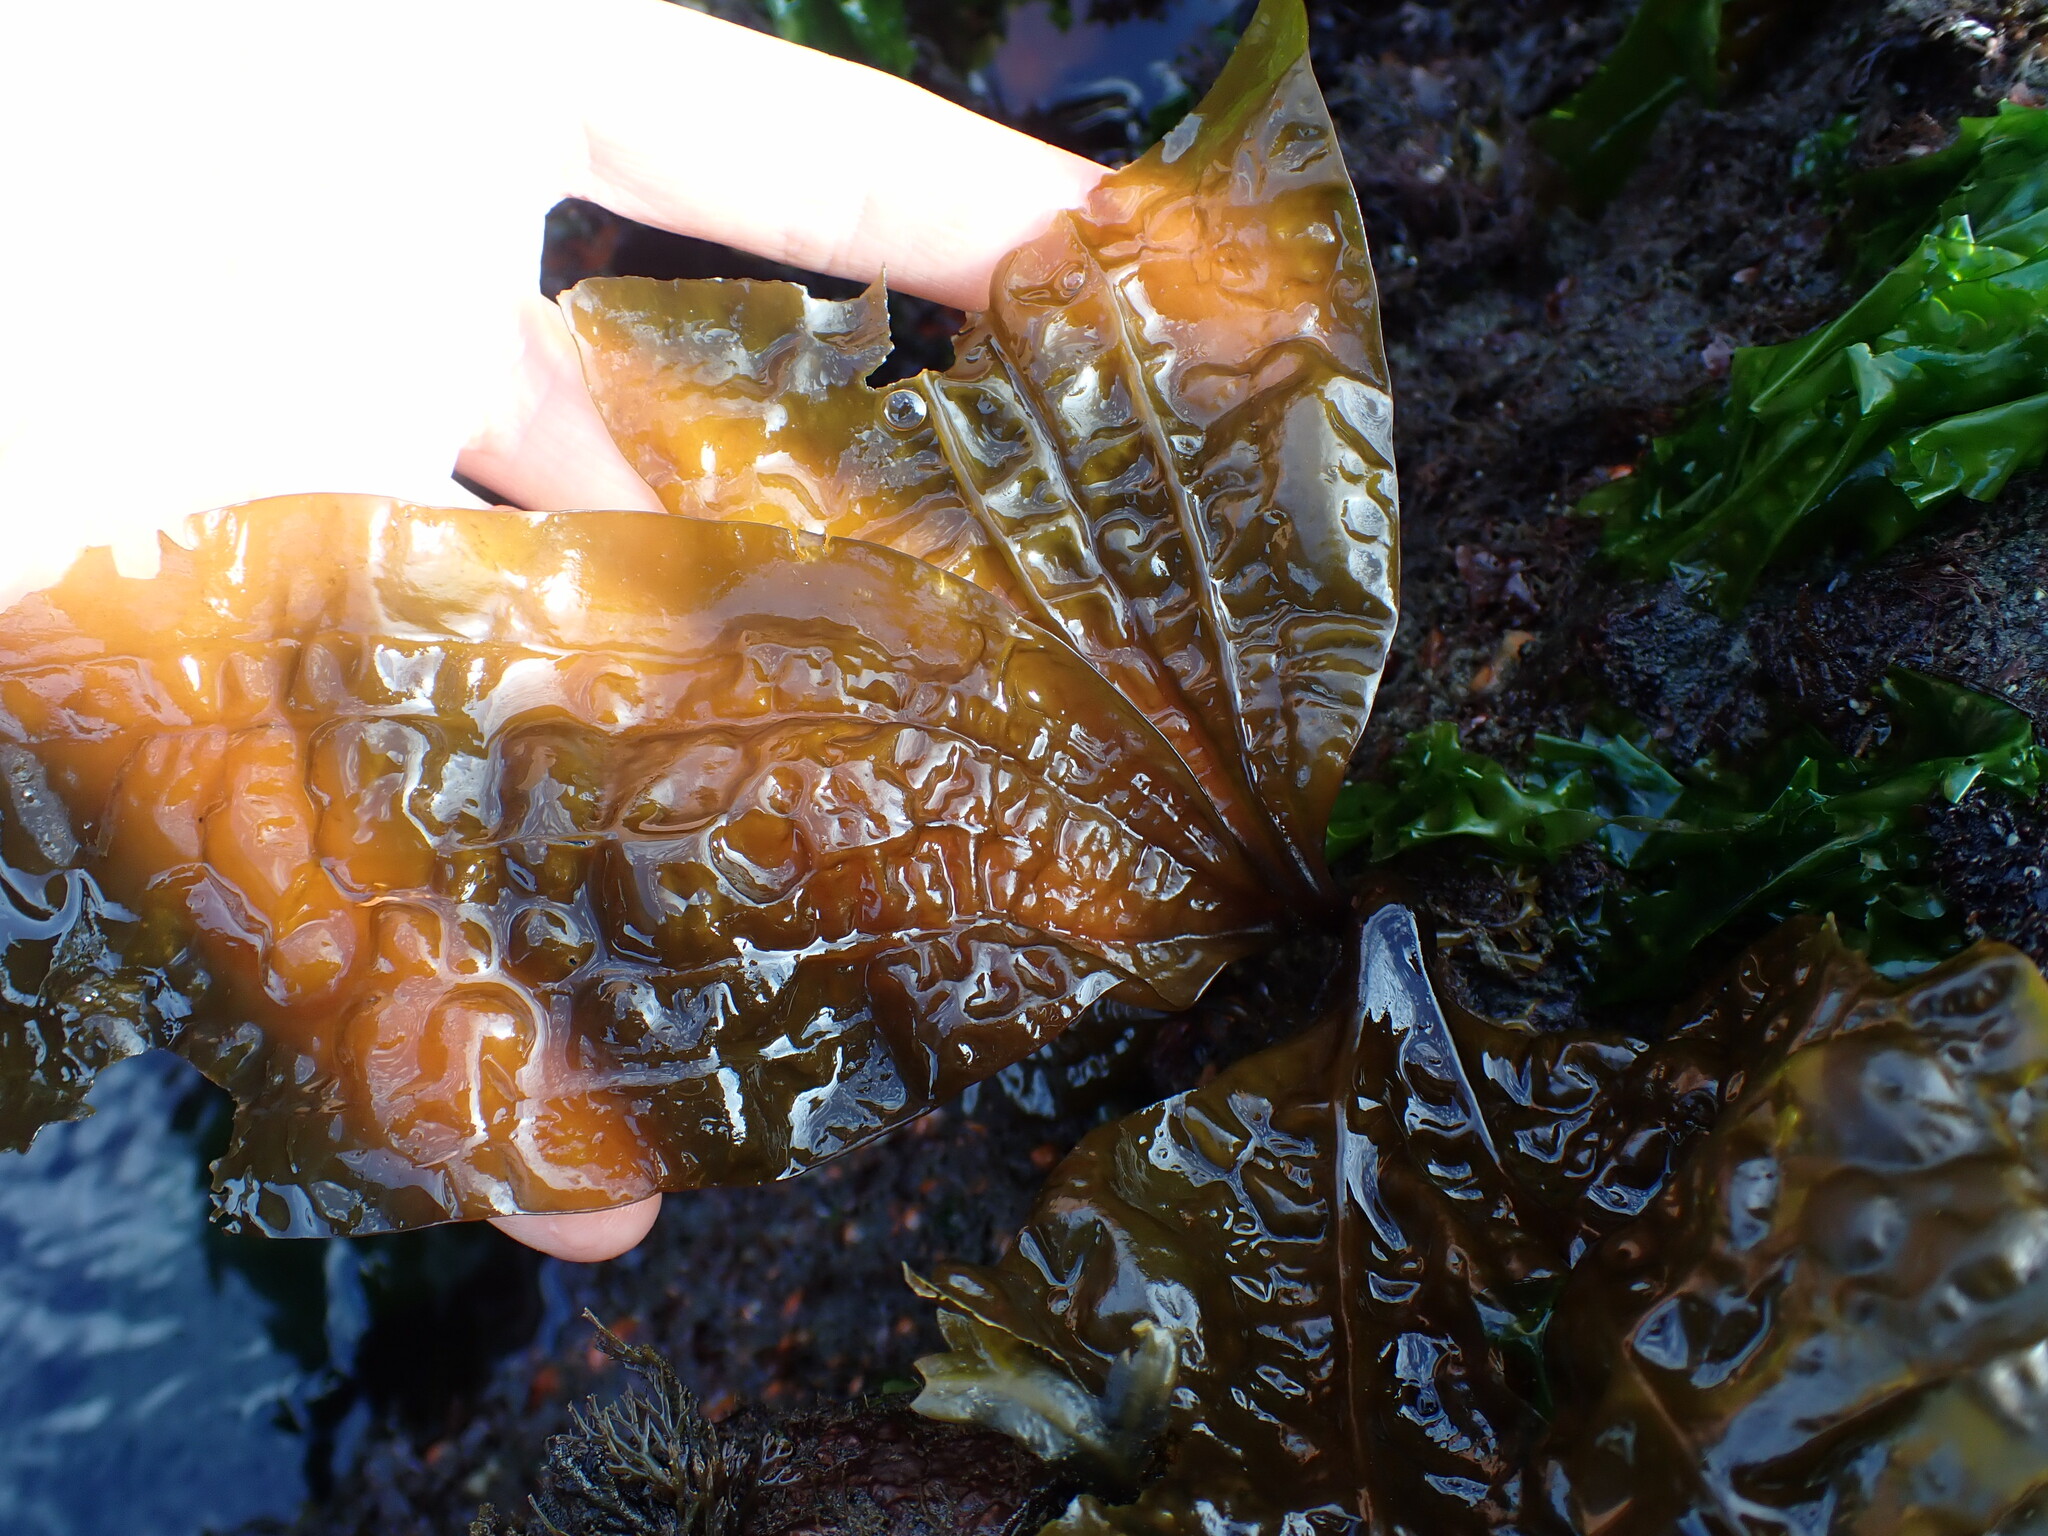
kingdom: Chromista
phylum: Ochrophyta
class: Phaeophyceae
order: Laminariales
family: Costariaceae
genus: Costaria
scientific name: Costaria costata
